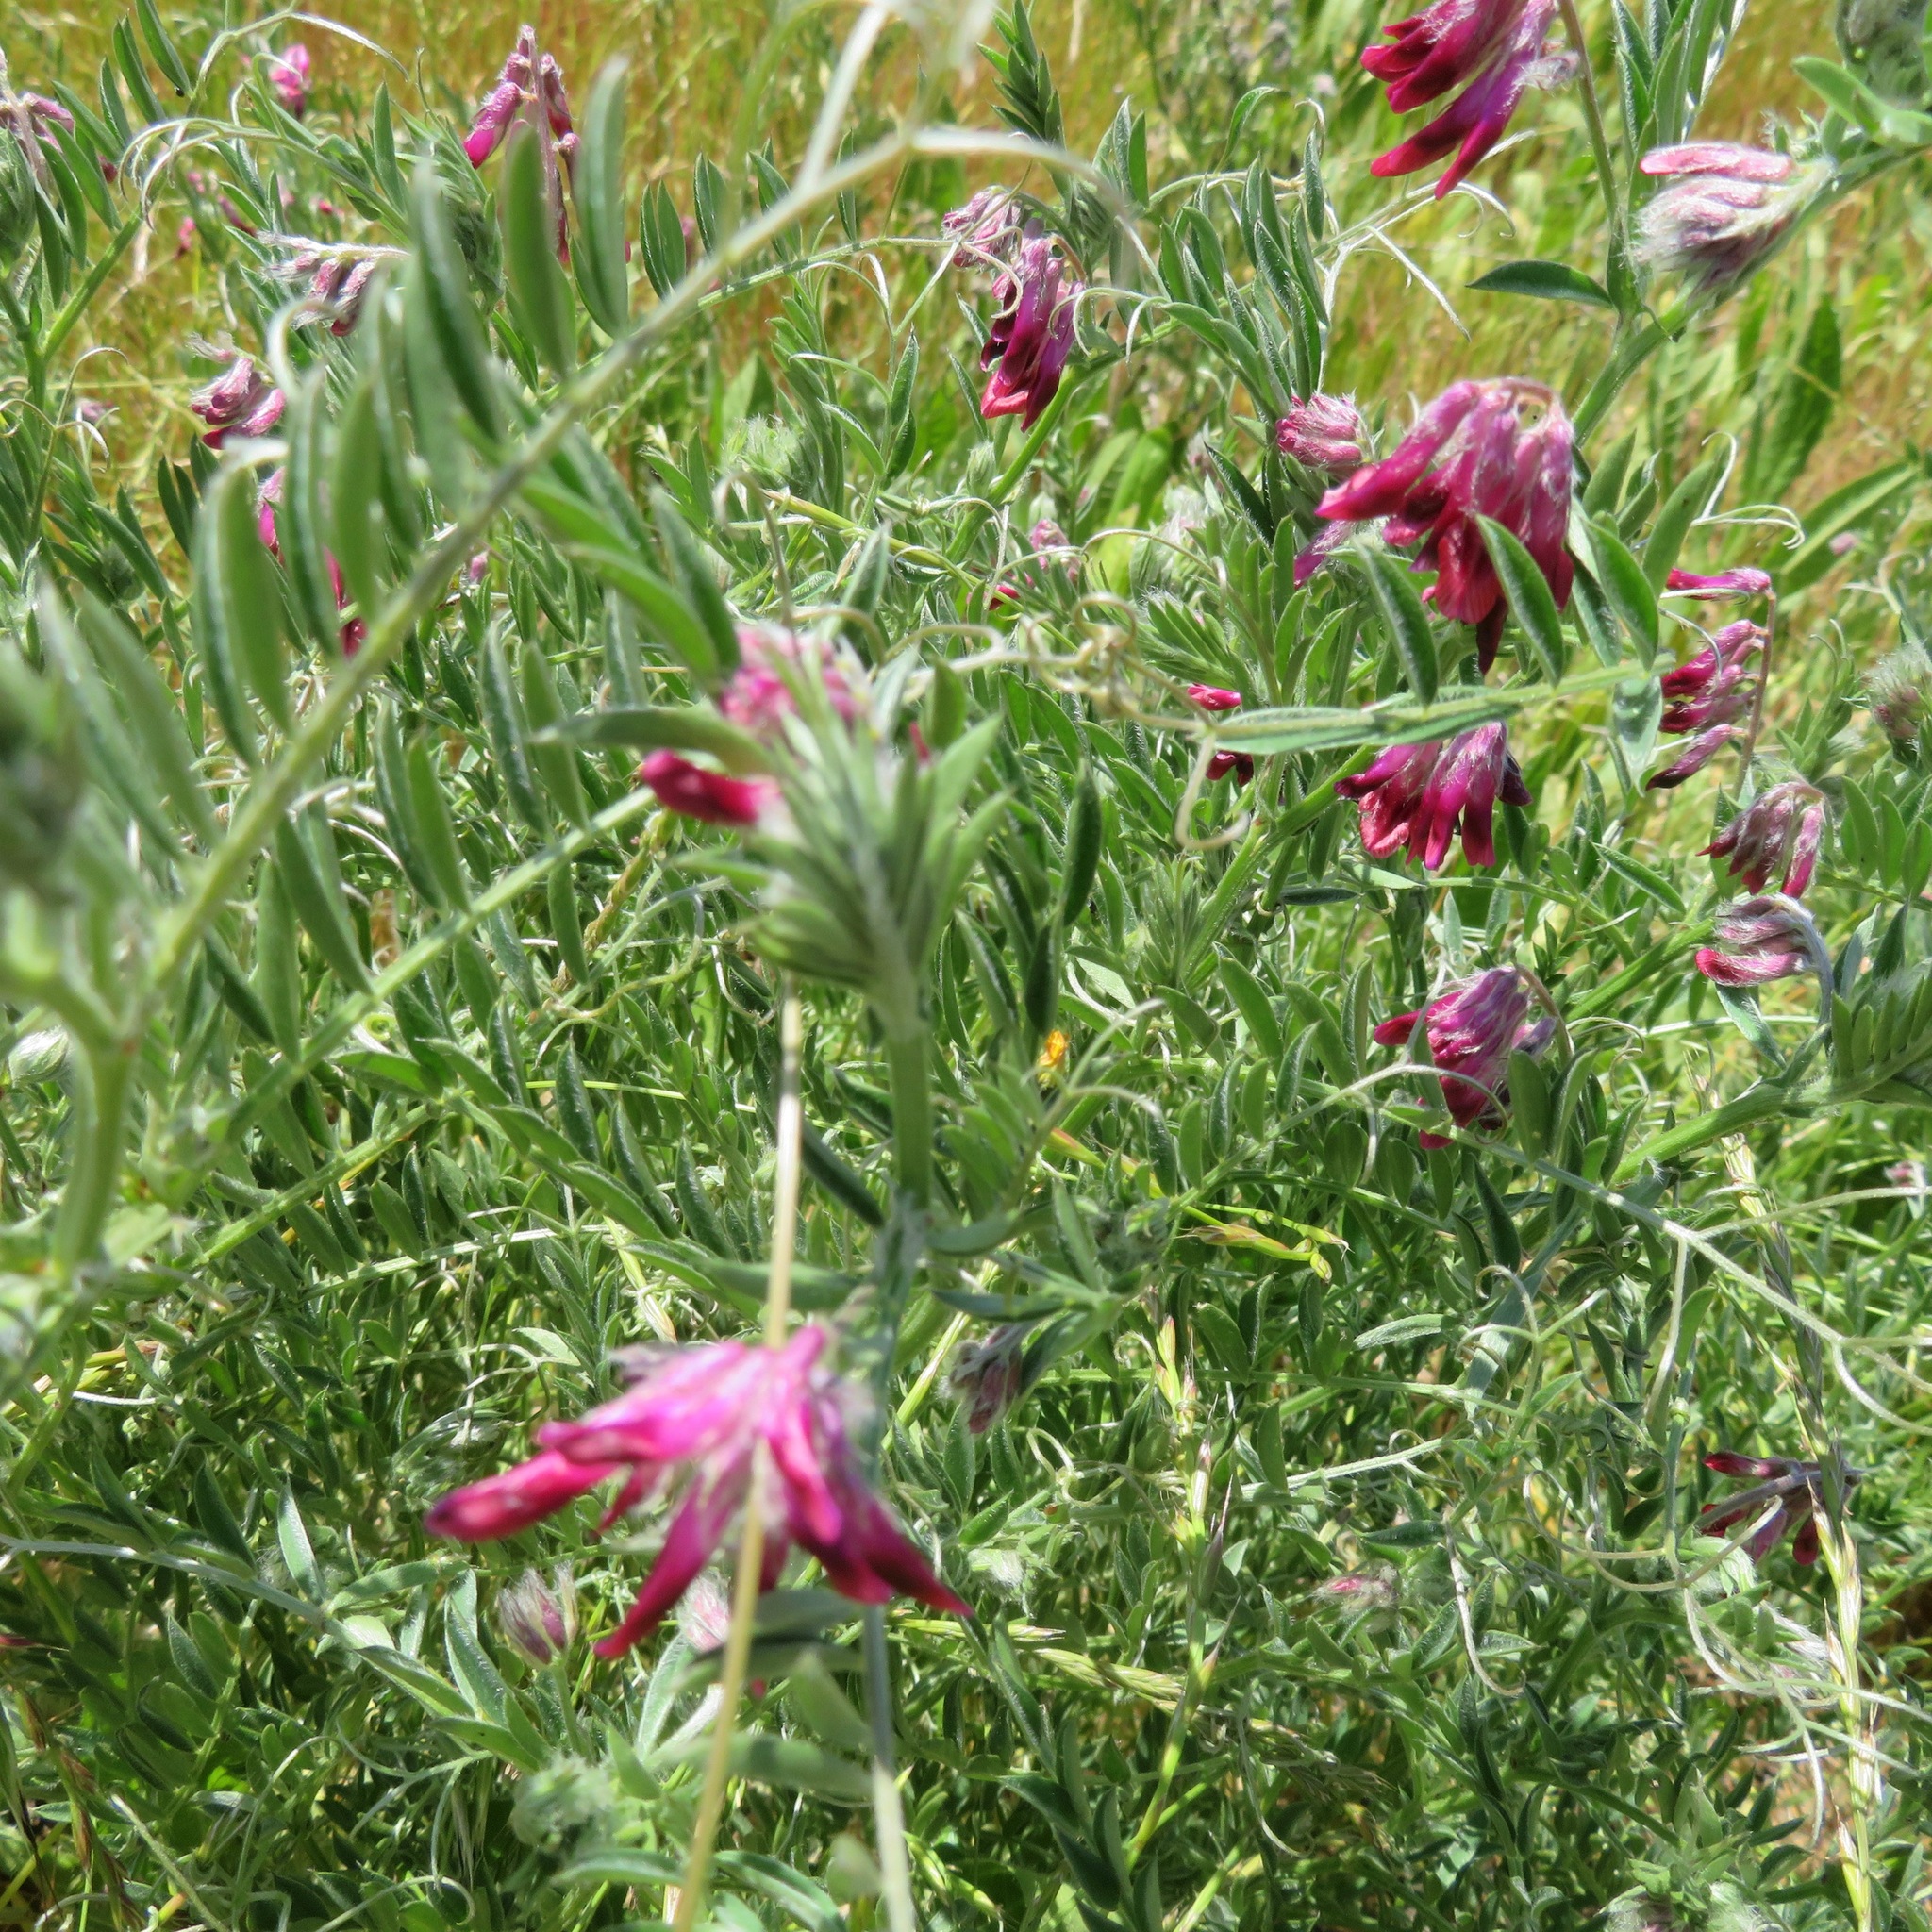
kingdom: Plantae
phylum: Tracheophyta
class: Magnoliopsida
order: Fabales
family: Fabaceae
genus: Vicia
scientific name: Vicia benghalensis
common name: Purple vetch
